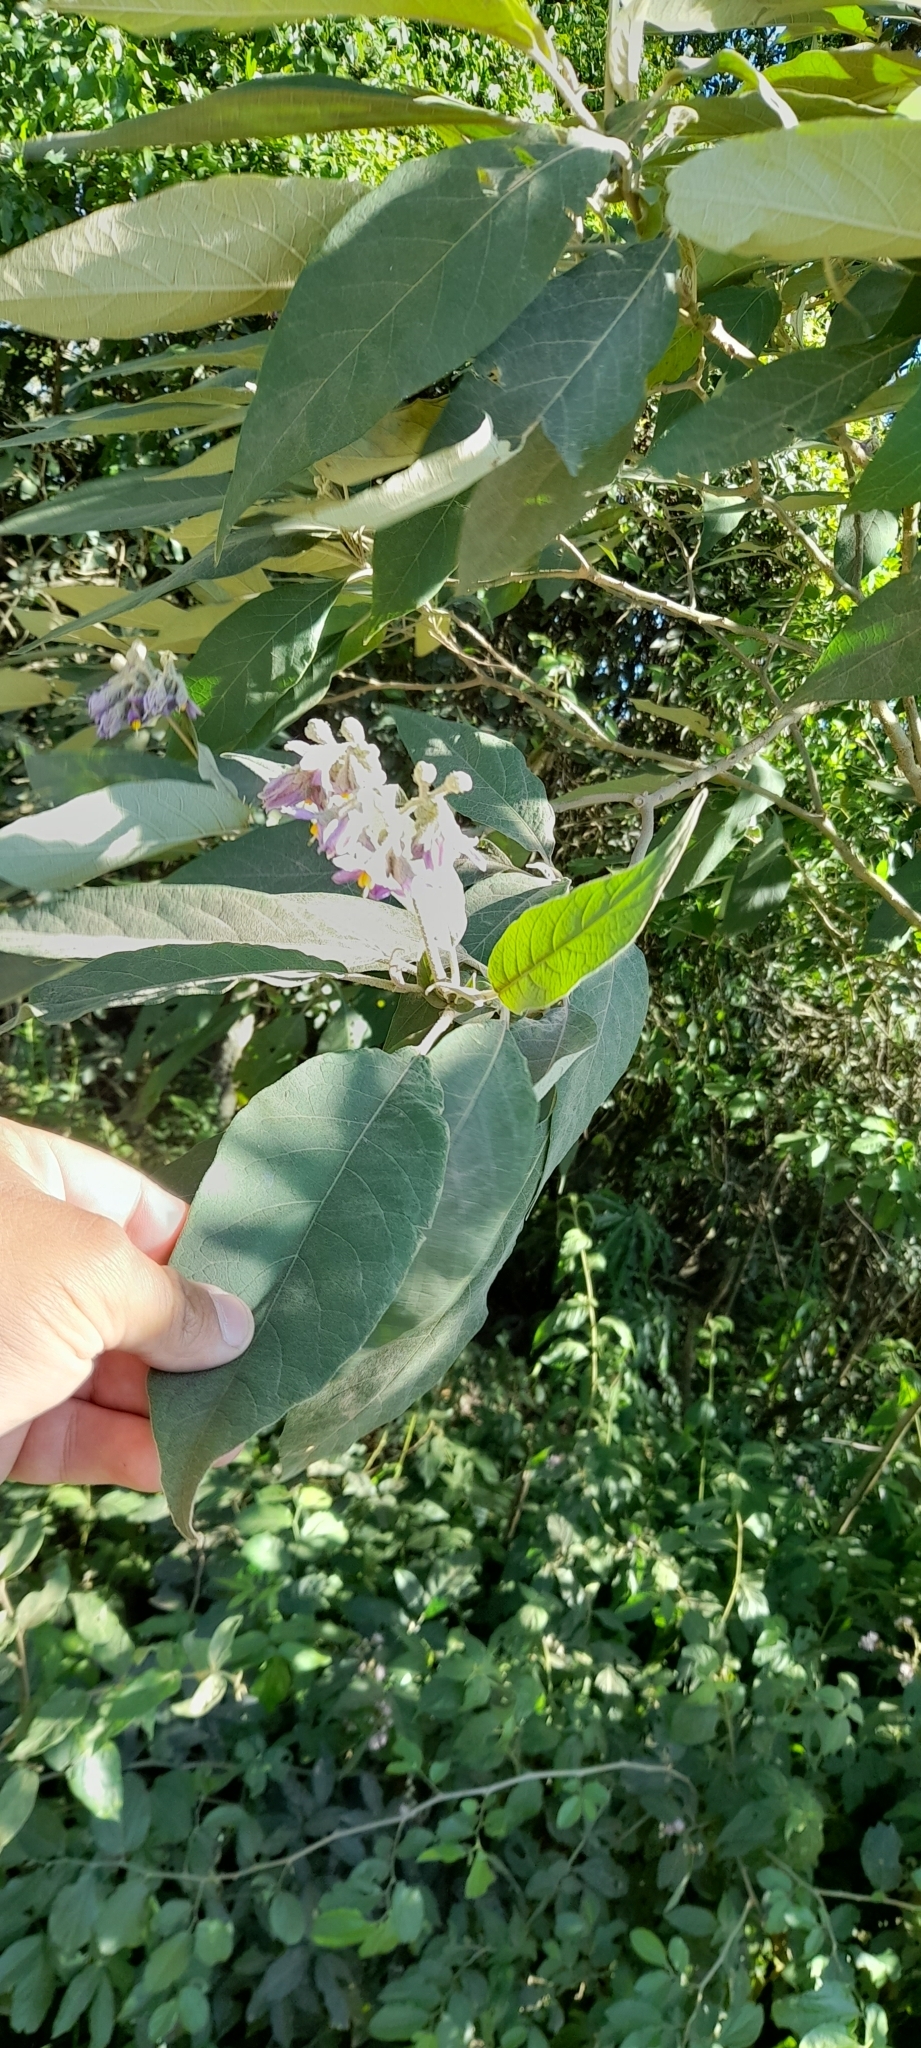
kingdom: Plantae
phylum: Tracheophyta
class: Magnoliopsida
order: Solanales
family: Solanaceae
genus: Solanum
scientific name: Solanum granulosoleprosum
